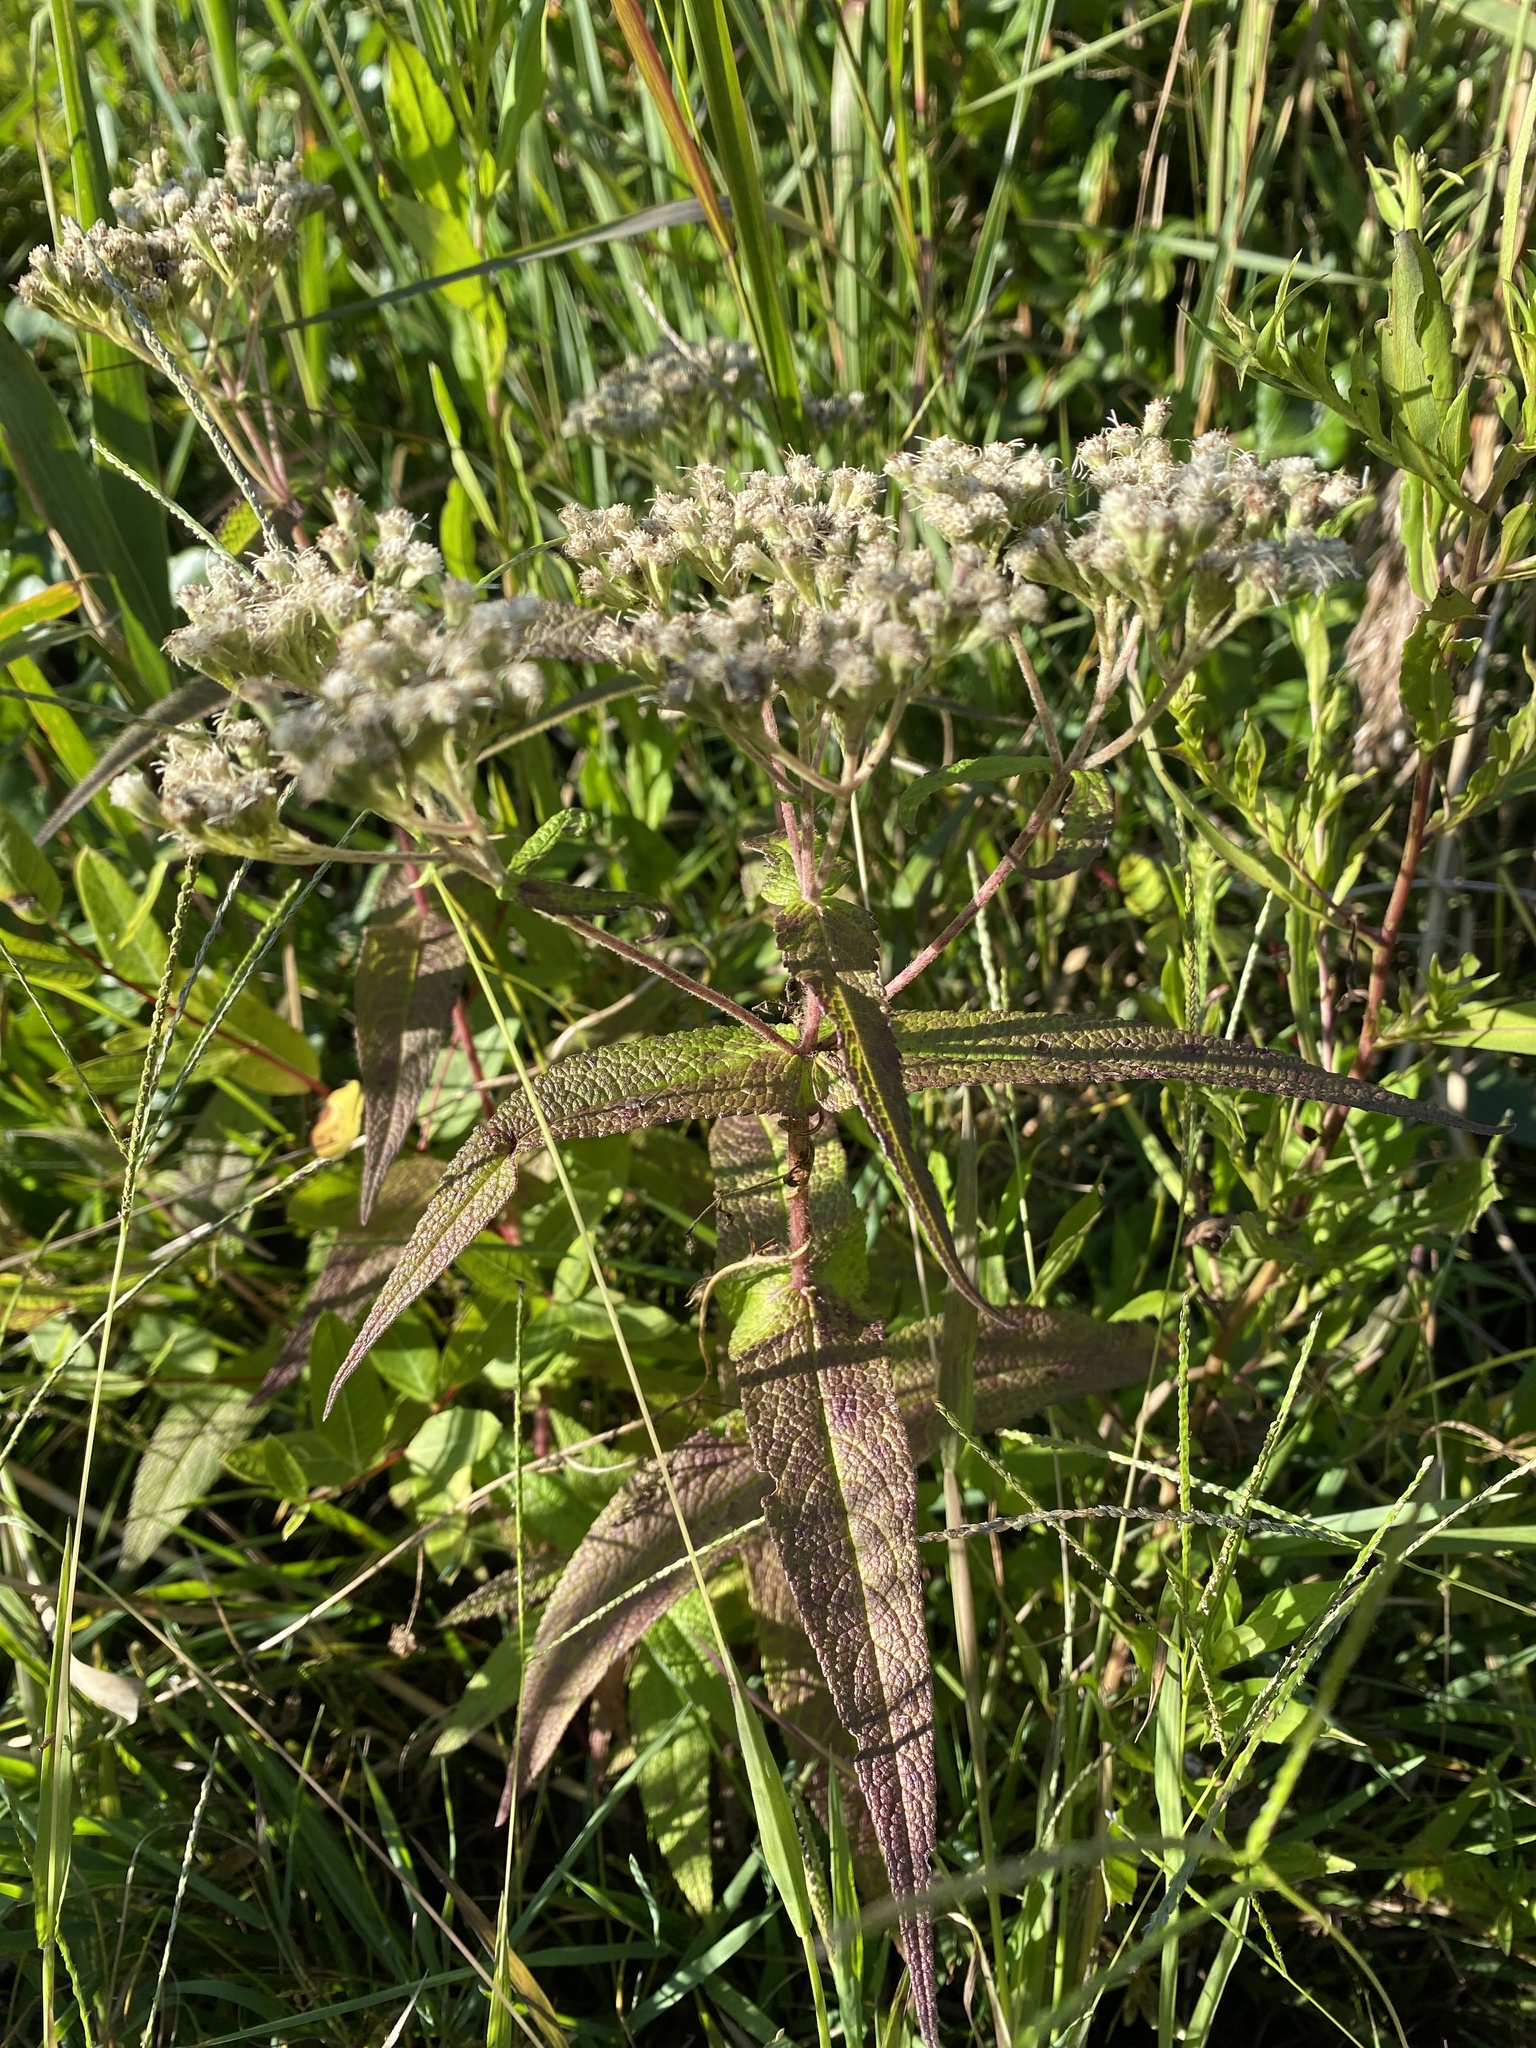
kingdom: Plantae
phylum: Tracheophyta
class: Magnoliopsida
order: Asterales
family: Asteraceae
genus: Eupatorium
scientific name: Eupatorium perfoliatum
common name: Boneset
